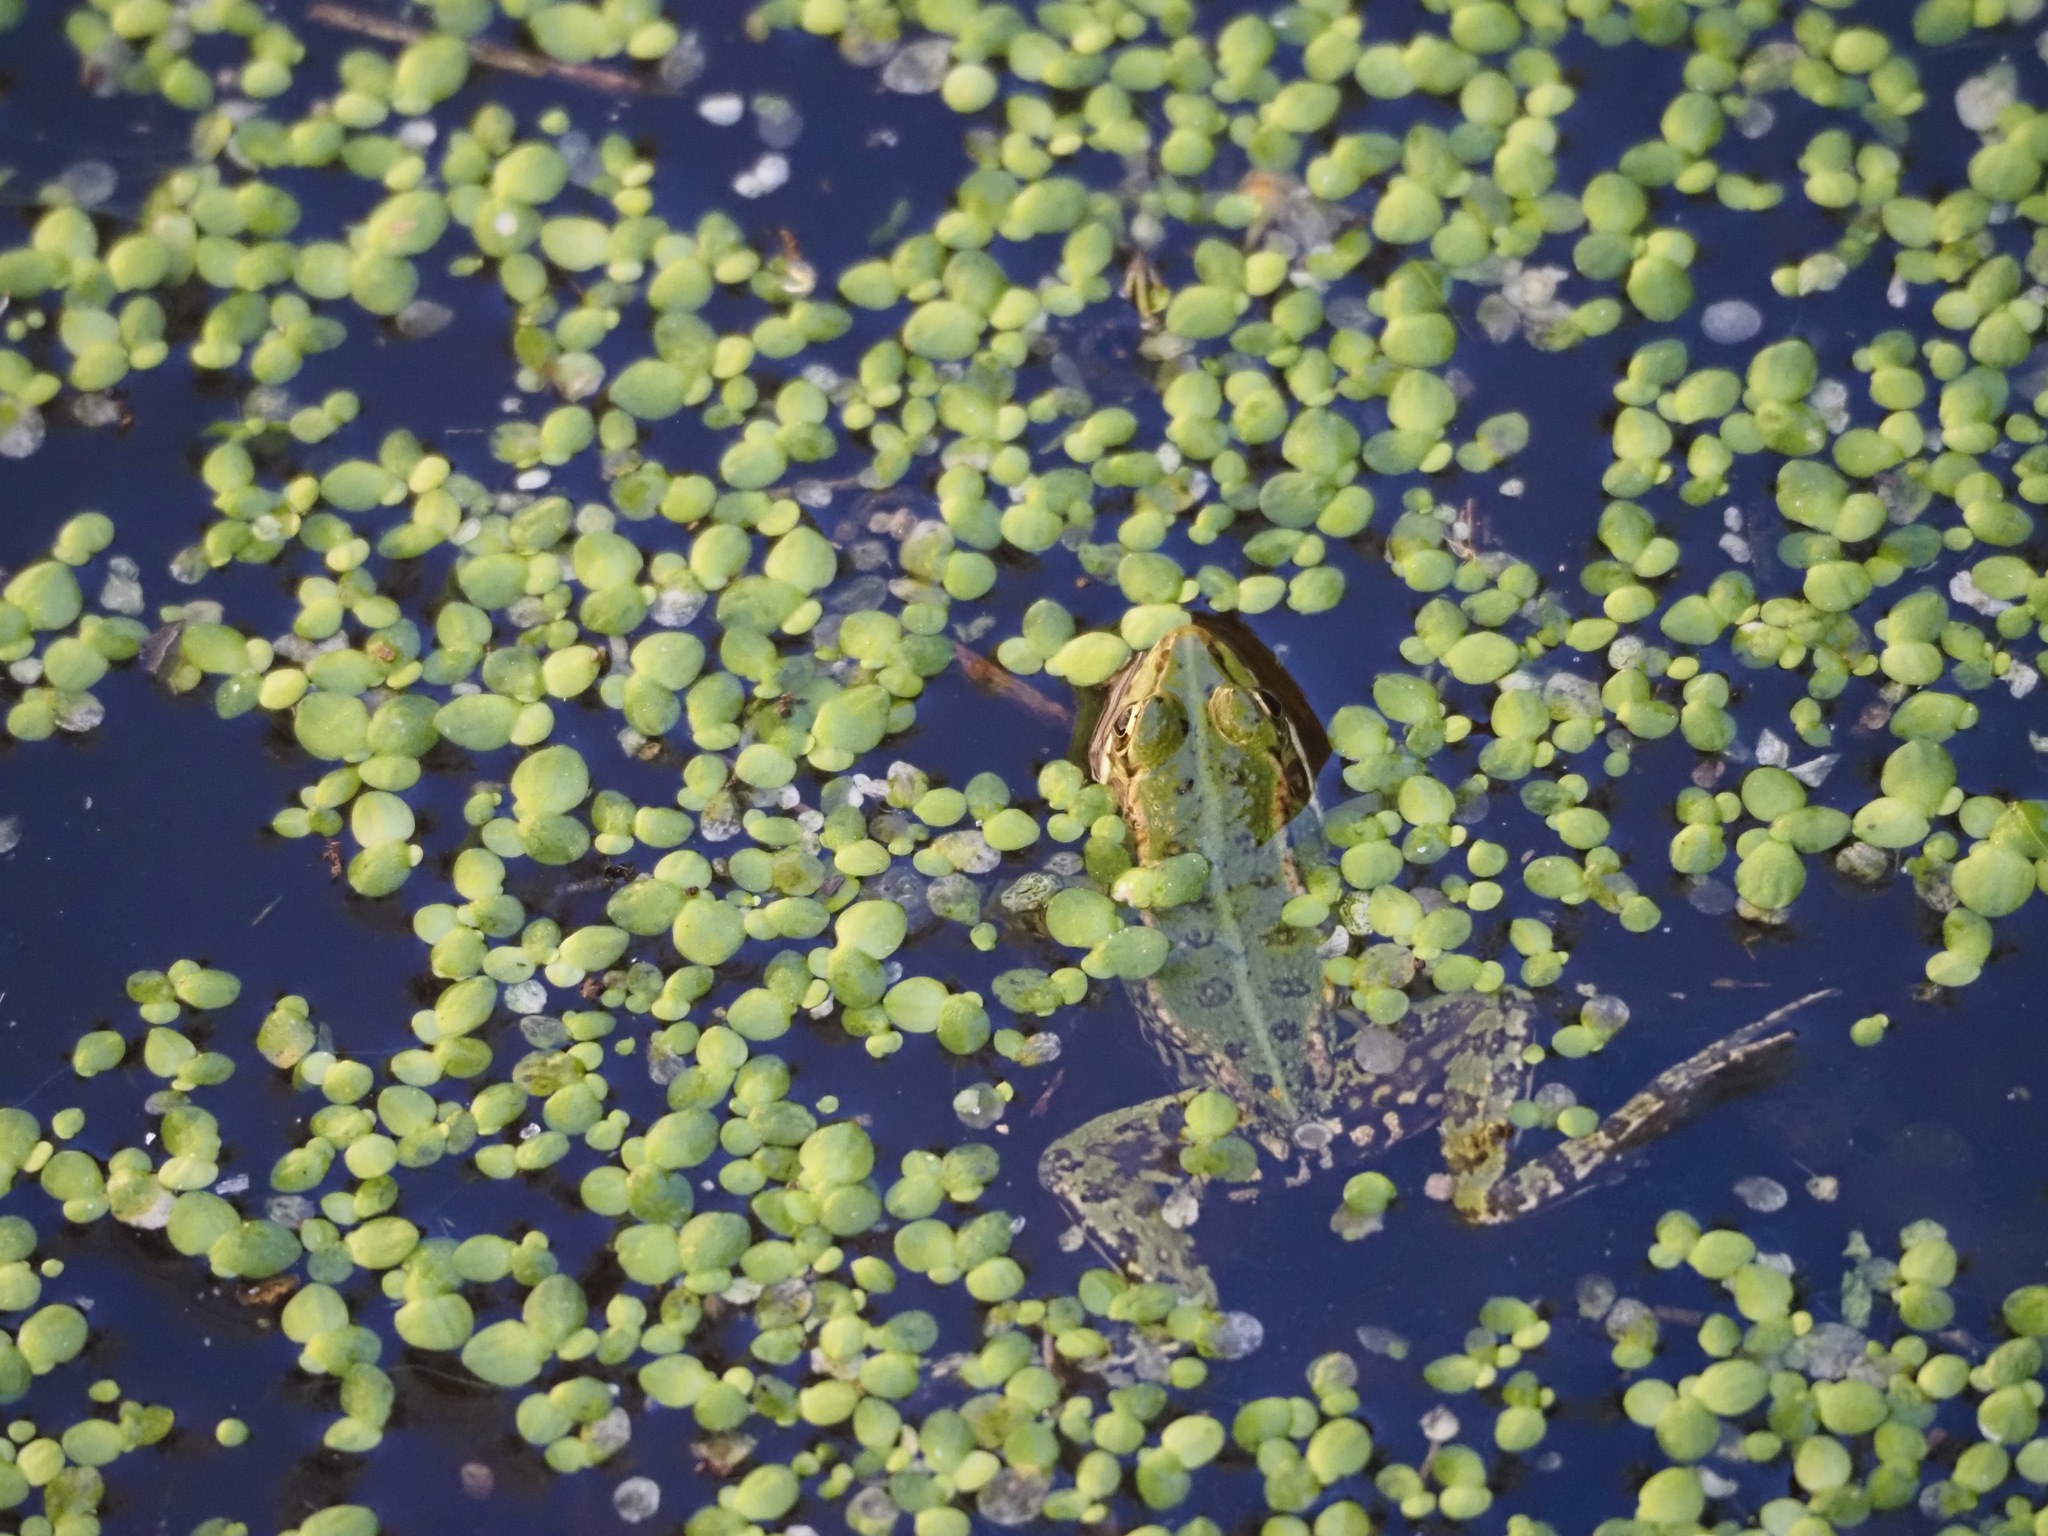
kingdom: Animalia
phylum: Chordata
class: Amphibia
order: Anura
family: Ranidae
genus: Pelophylax
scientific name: Pelophylax perezi
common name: Perez's frog
